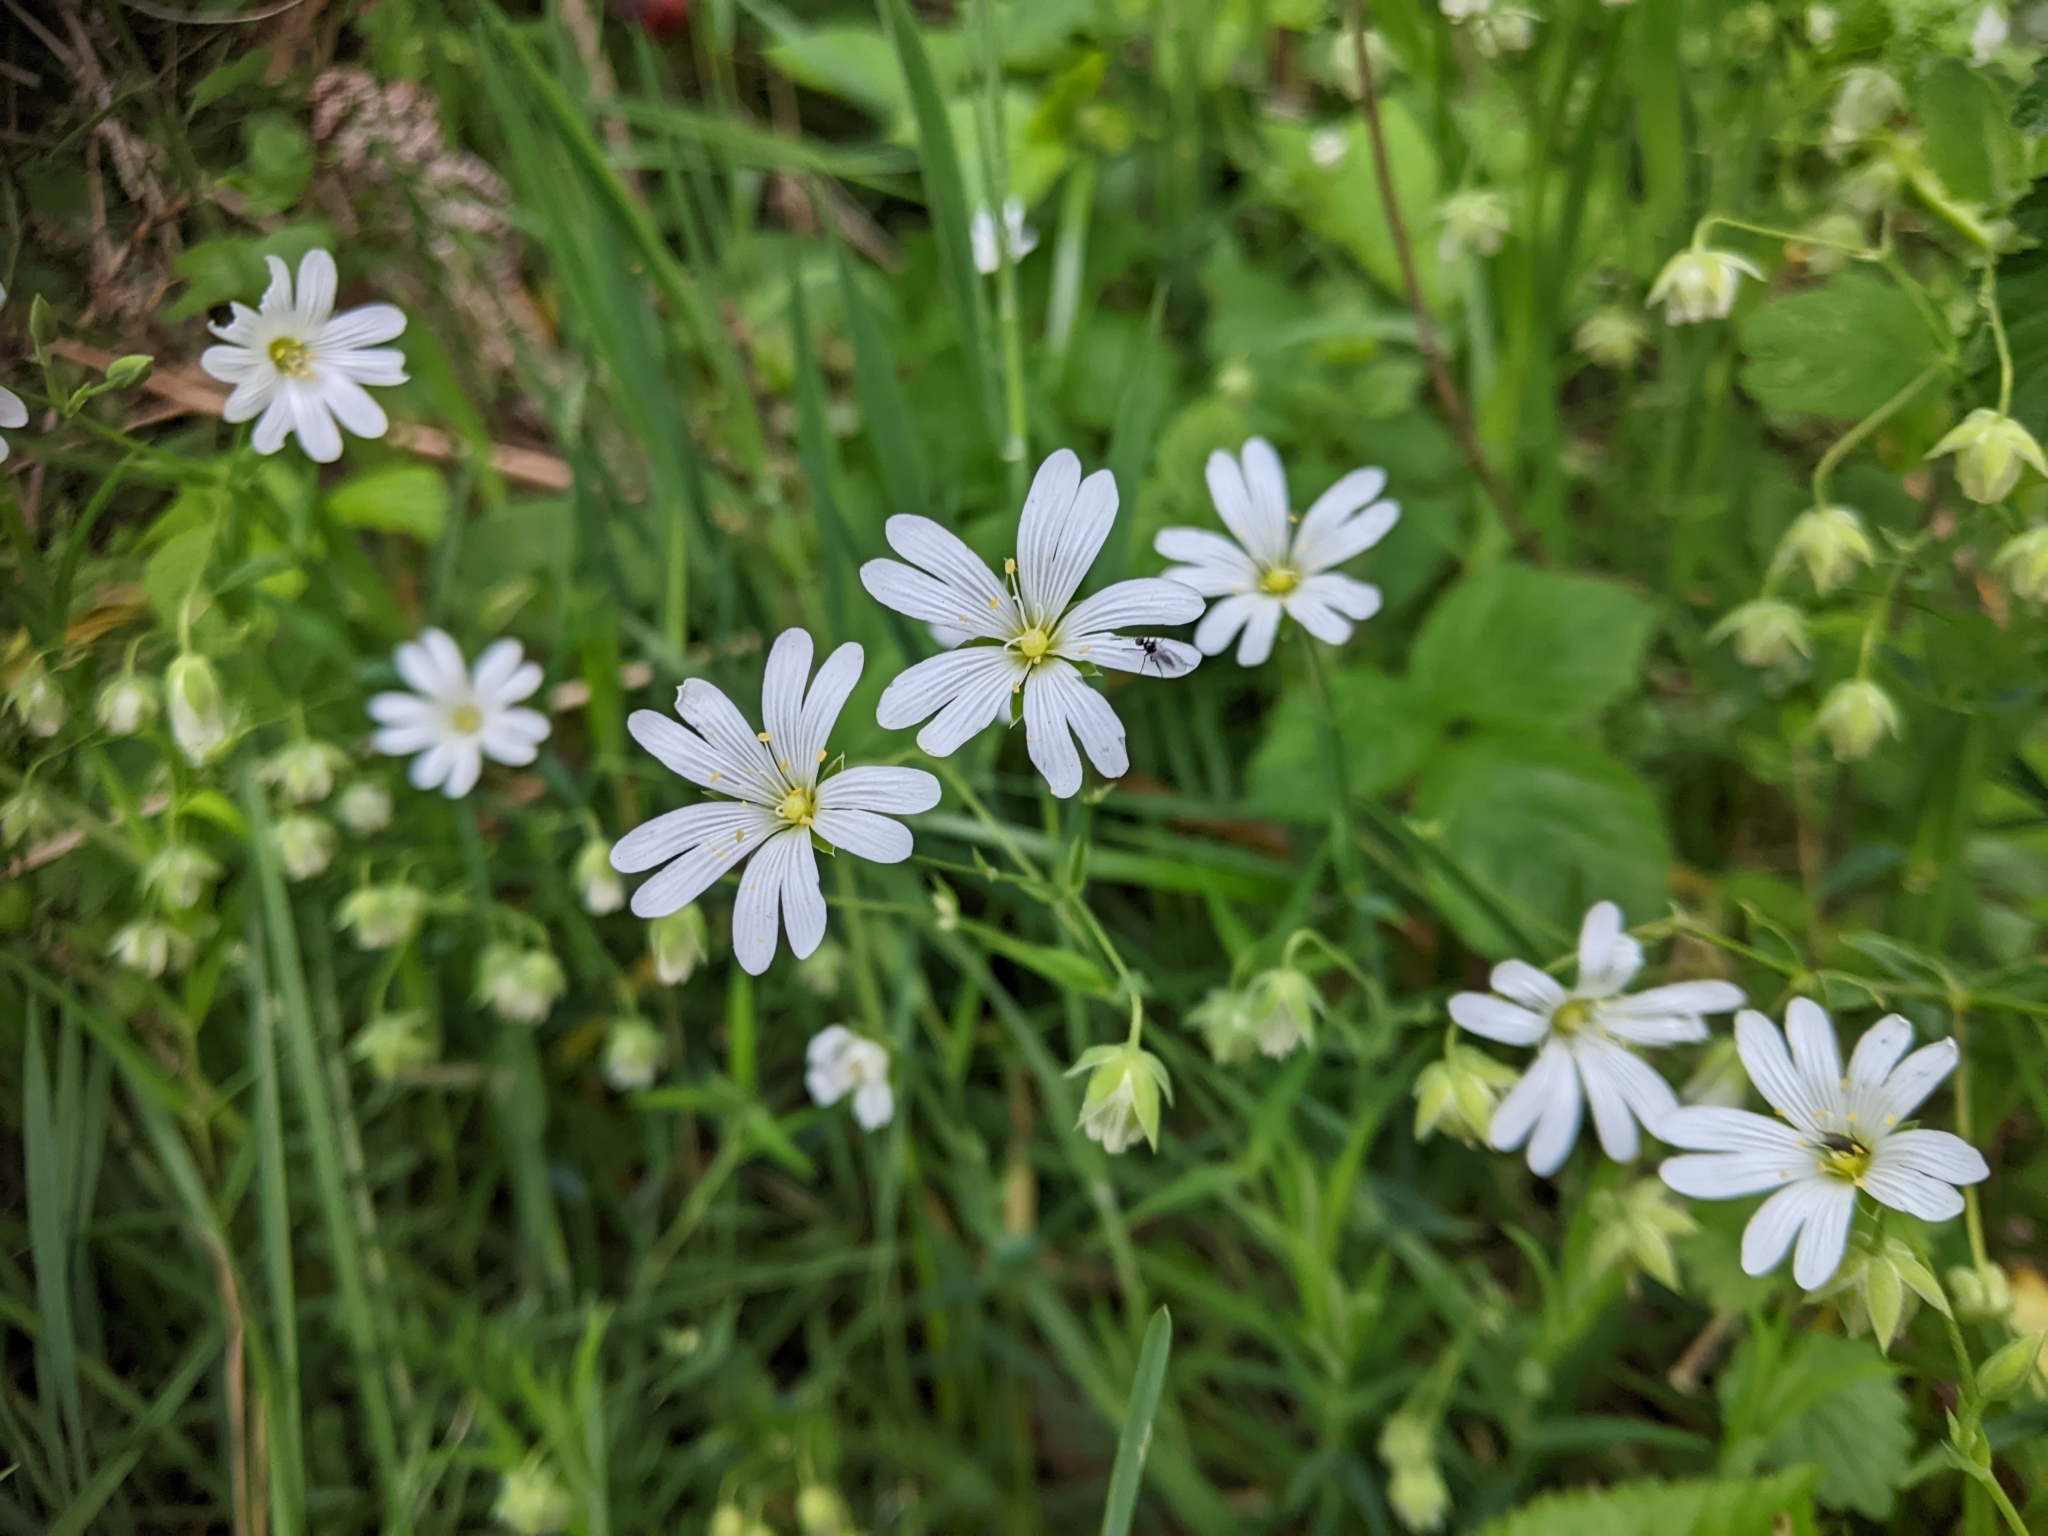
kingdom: Plantae
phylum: Tracheophyta
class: Magnoliopsida
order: Caryophyllales
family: Caryophyllaceae
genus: Rabelera
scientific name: Rabelera holostea
